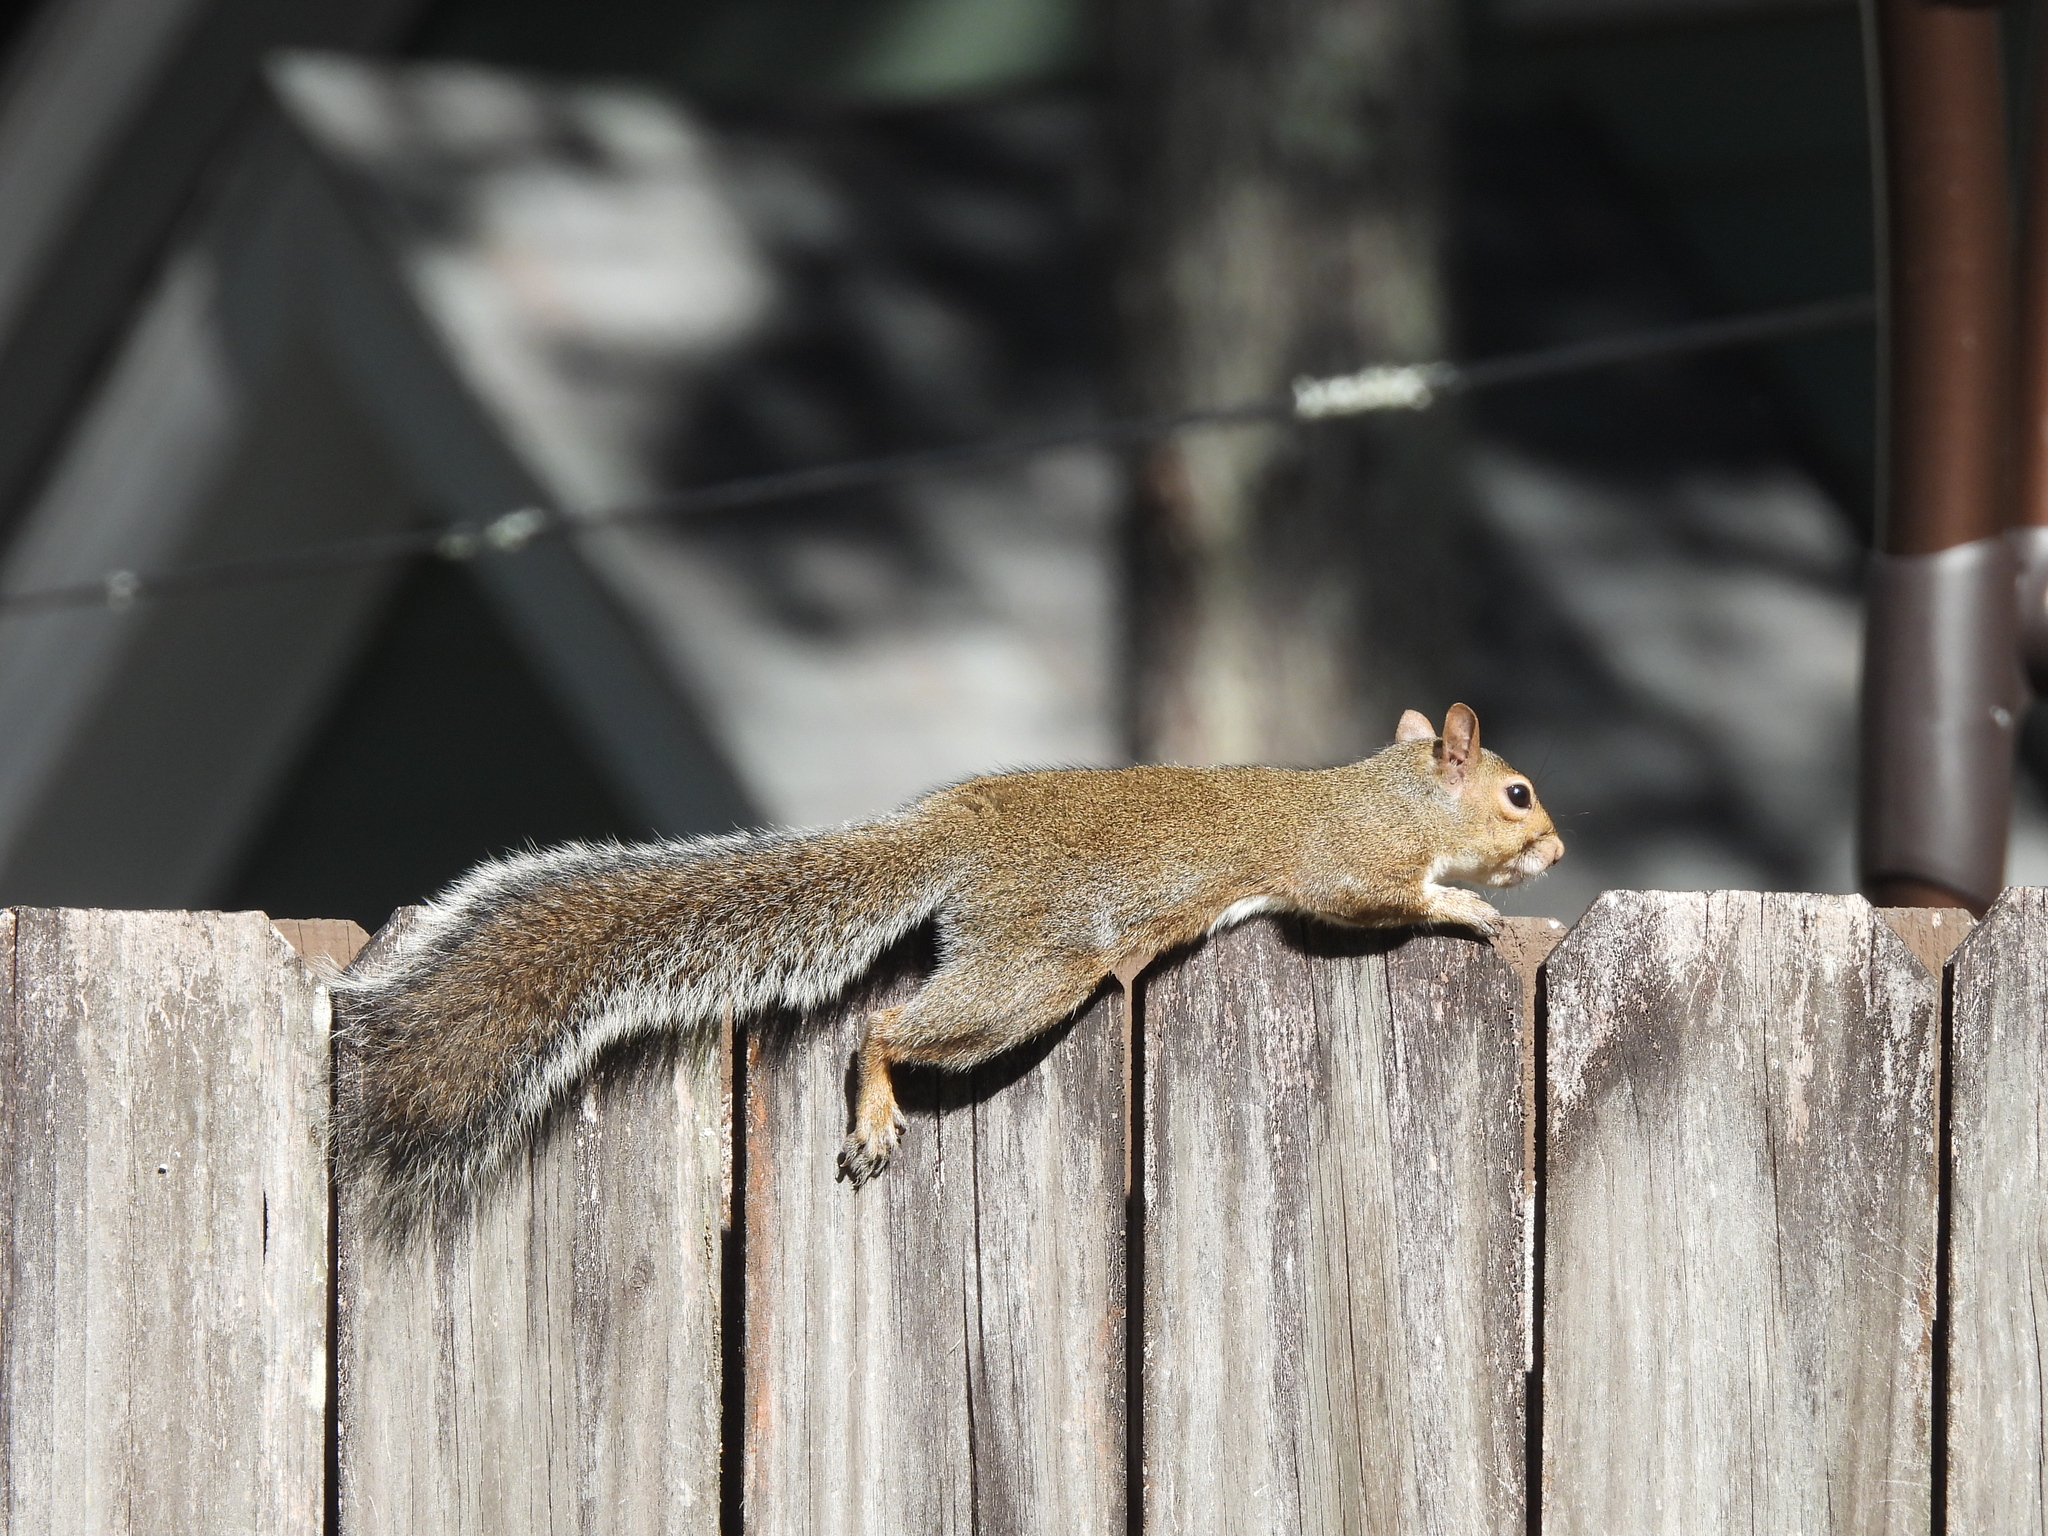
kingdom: Animalia
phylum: Chordata
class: Mammalia
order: Rodentia
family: Sciuridae
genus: Sciurus
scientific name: Sciurus carolinensis
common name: Eastern gray squirrel
